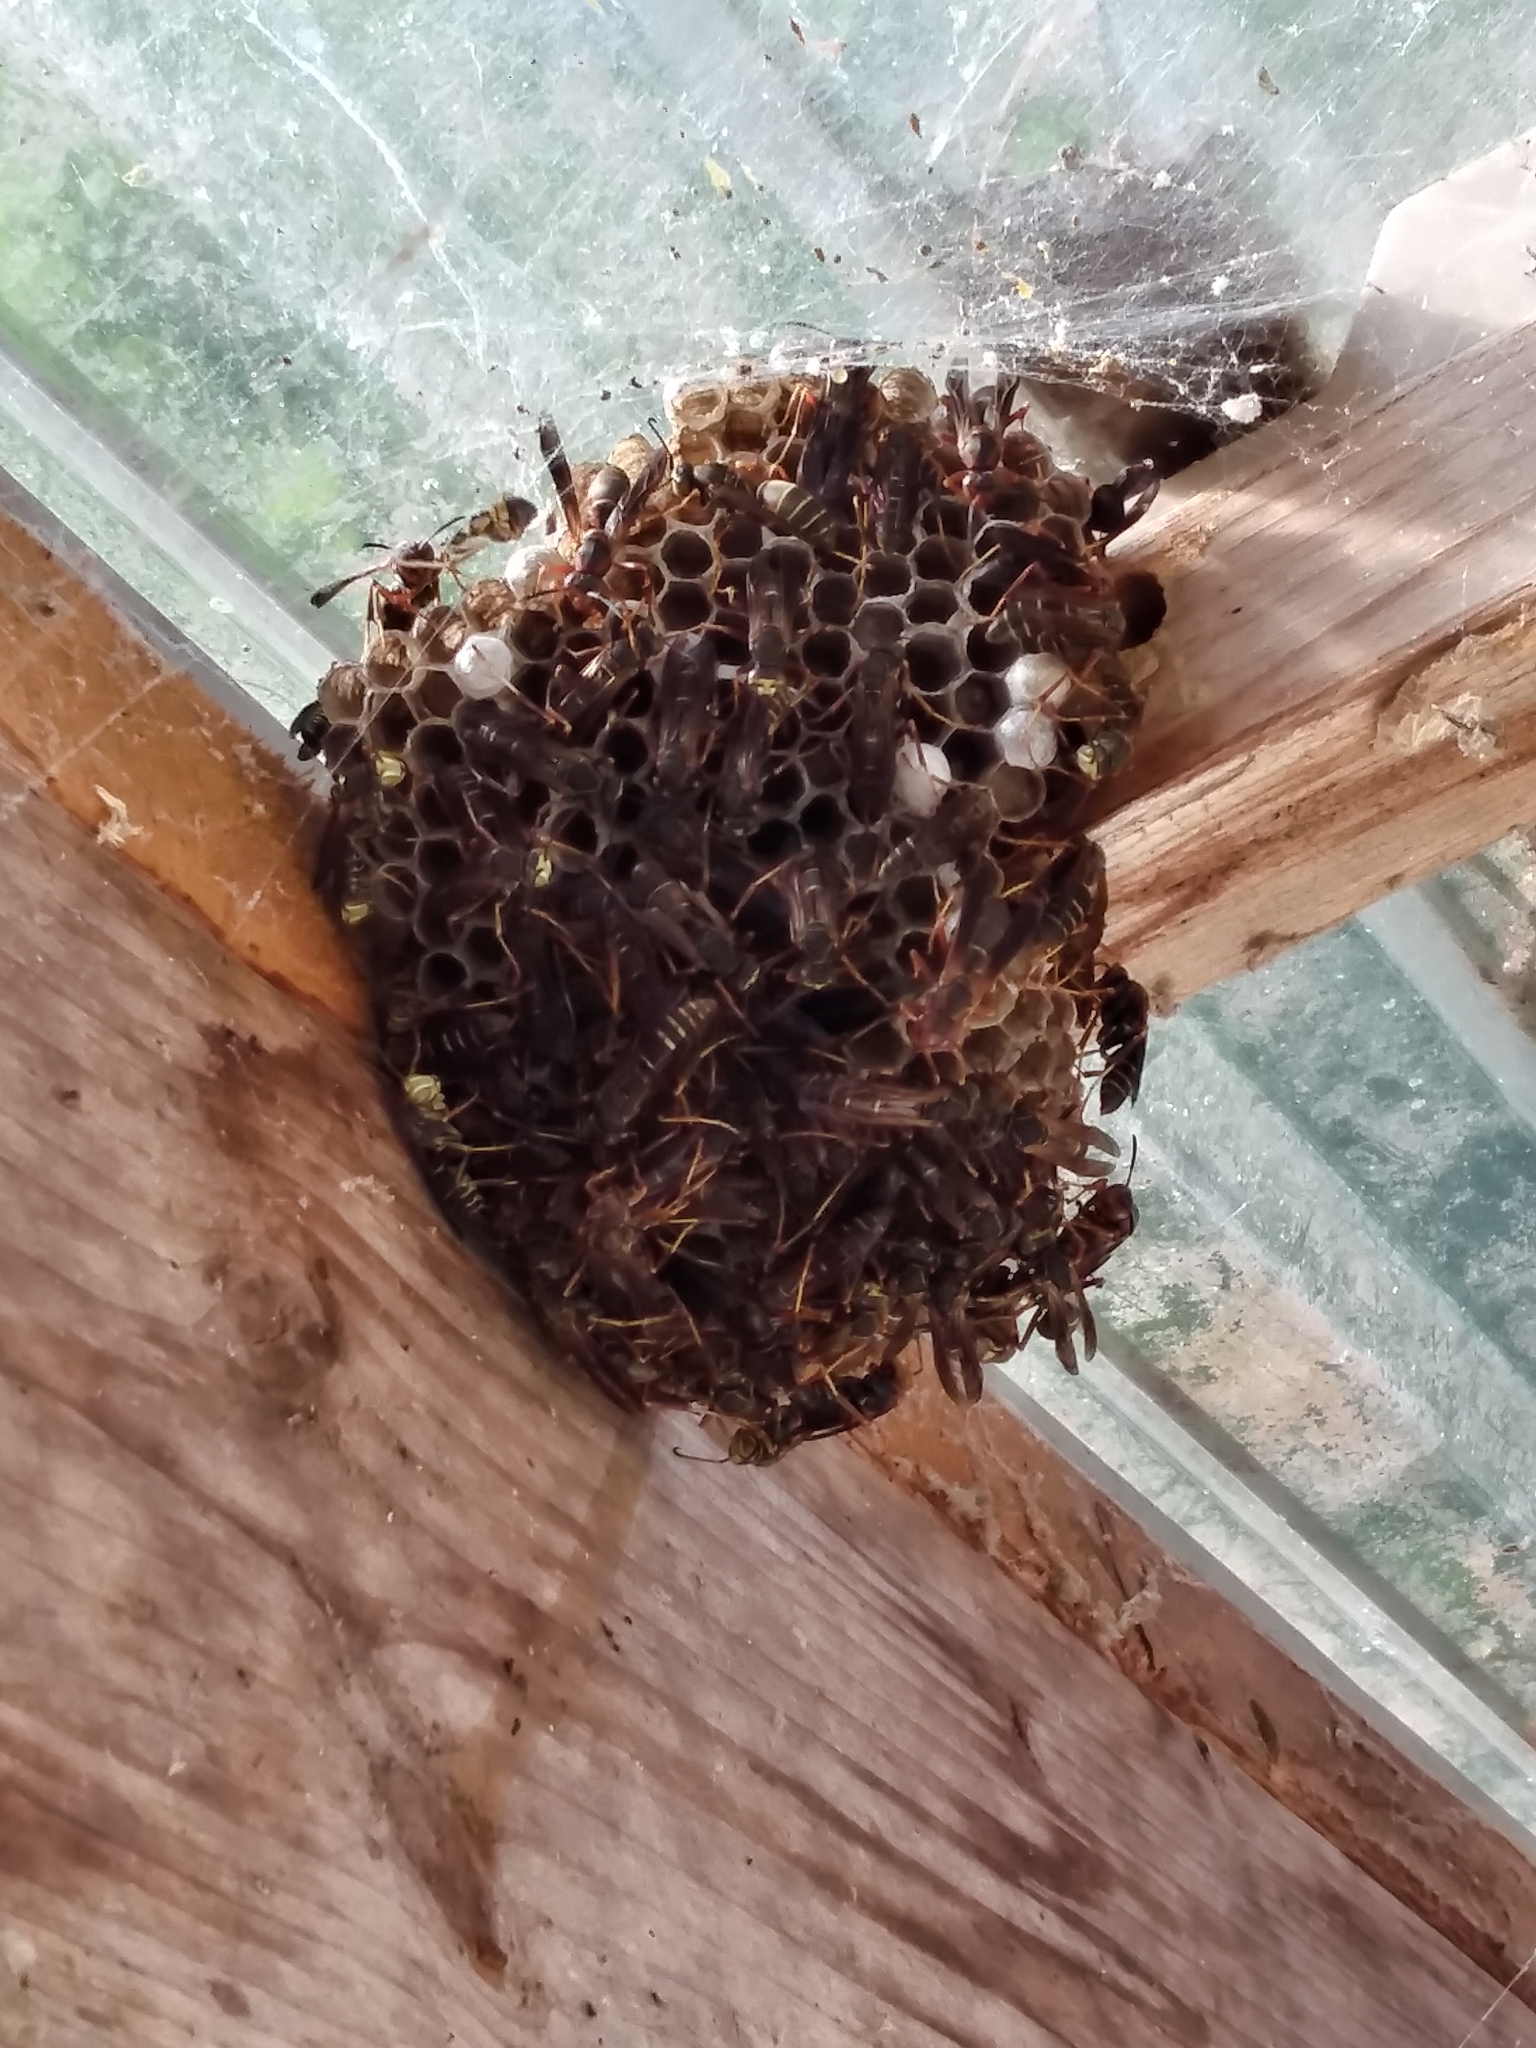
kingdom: Animalia
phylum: Arthropoda
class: Insecta
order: Hymenoptera
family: Eumenidae
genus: Polistes
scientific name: Polistes fuscatus
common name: Dark paper wasp
